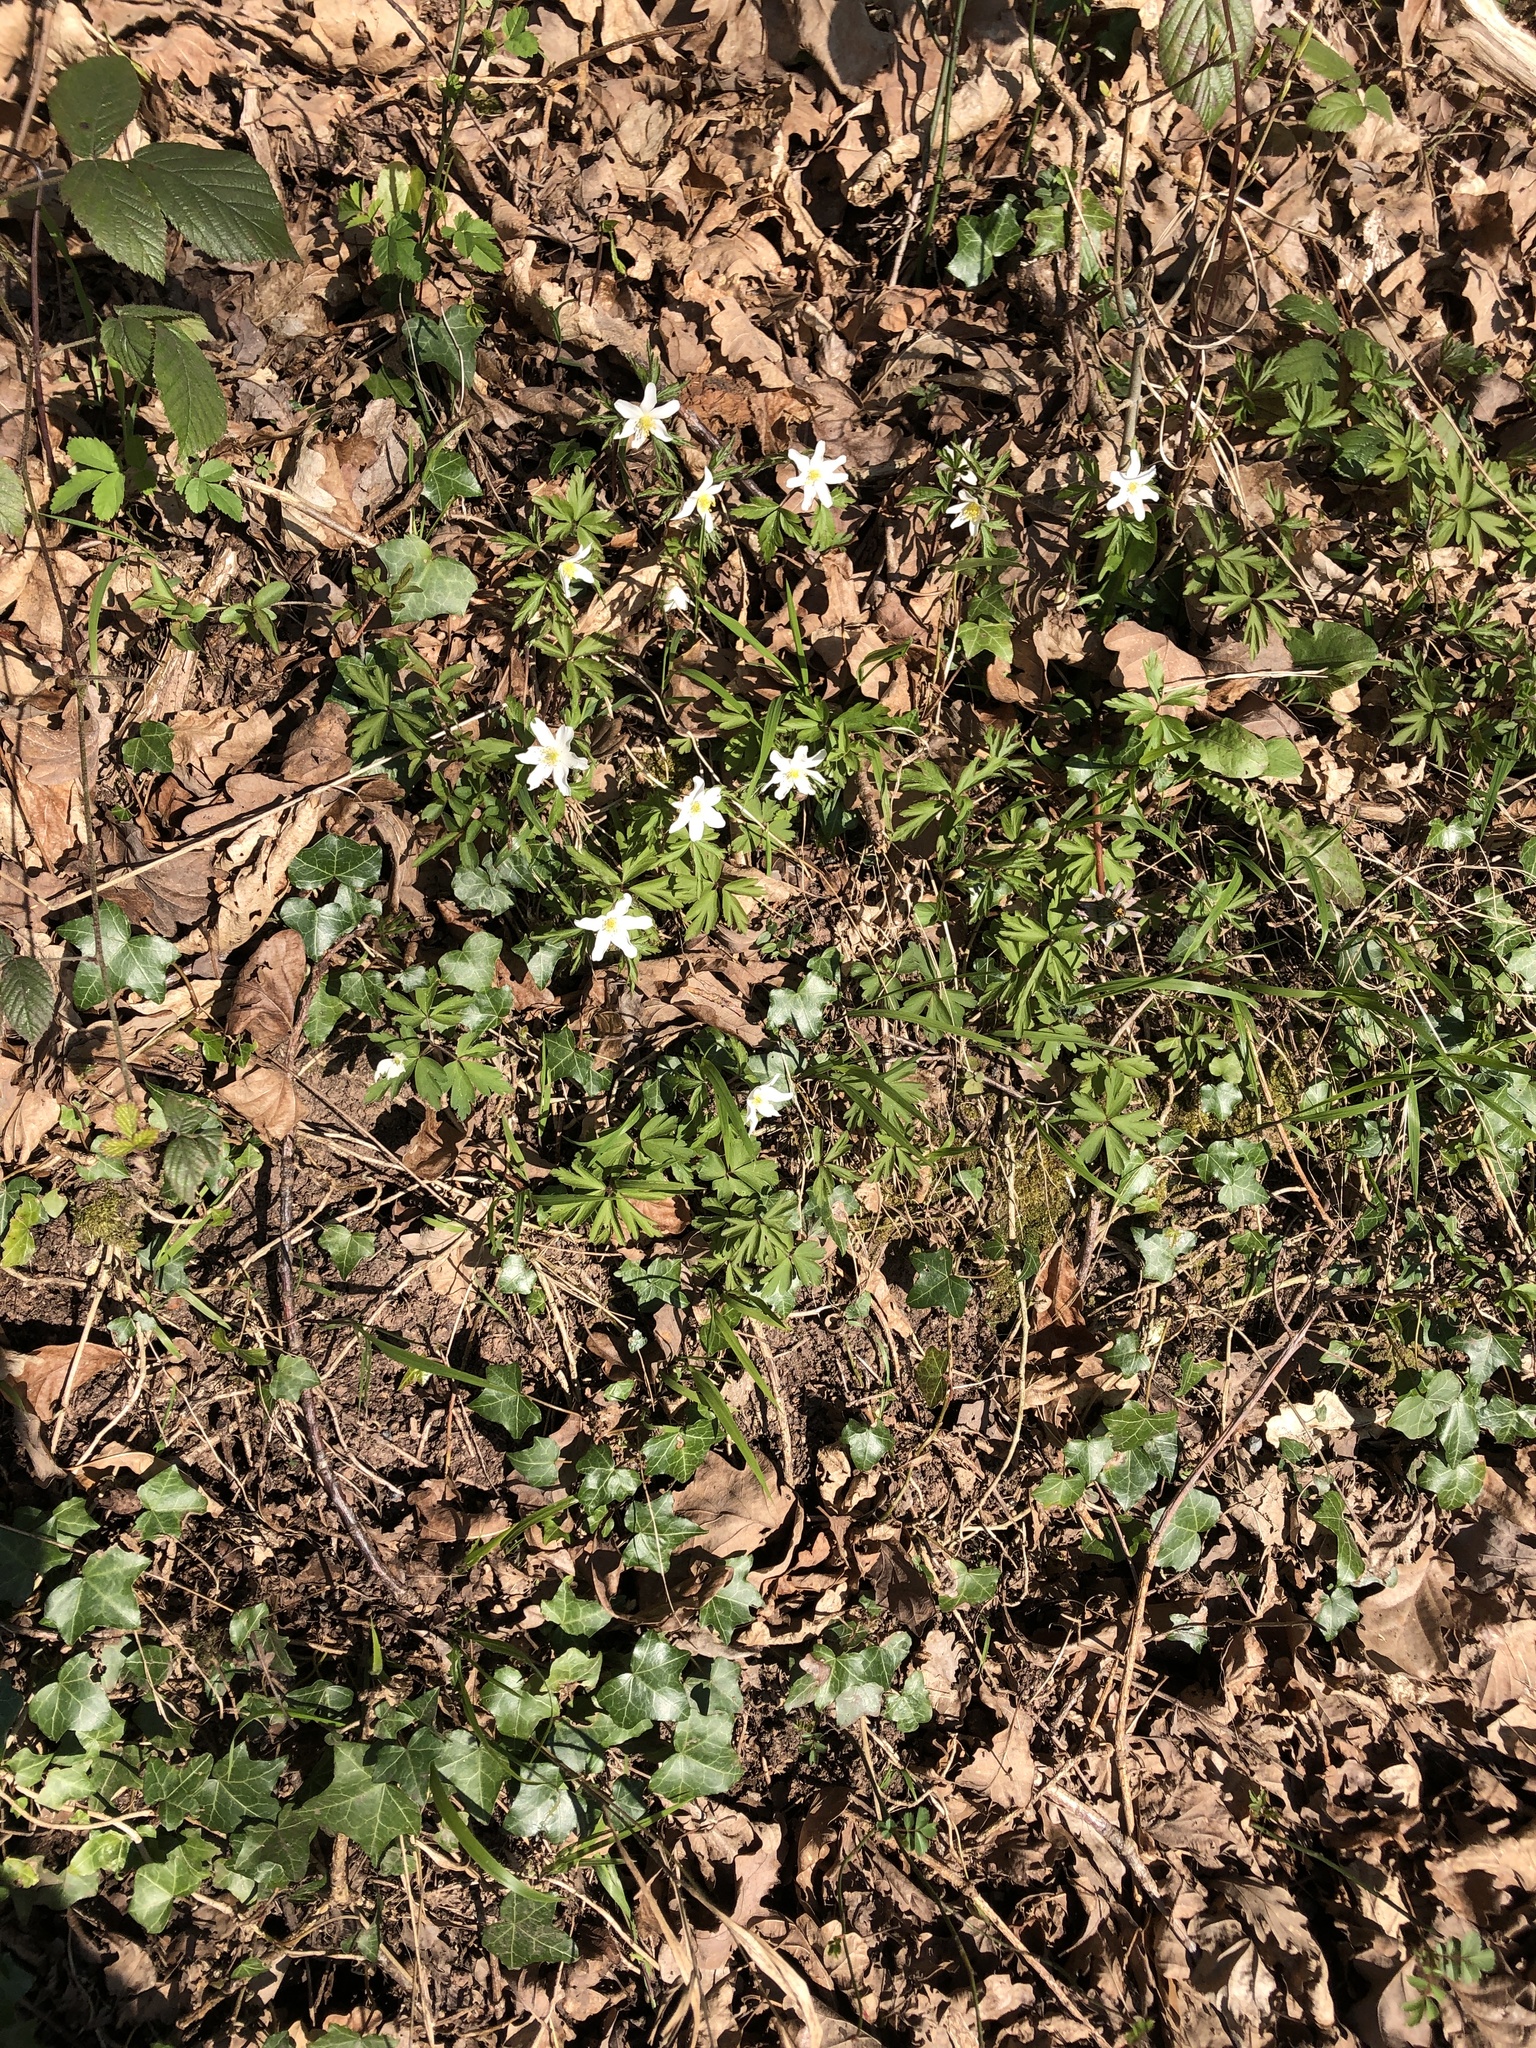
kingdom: Plantae
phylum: Tracheophyta
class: Magnoliopsida
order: Ranunculales
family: Ranunculaceae
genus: Anemone
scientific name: Anemone nemorosa
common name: Wood anemone
